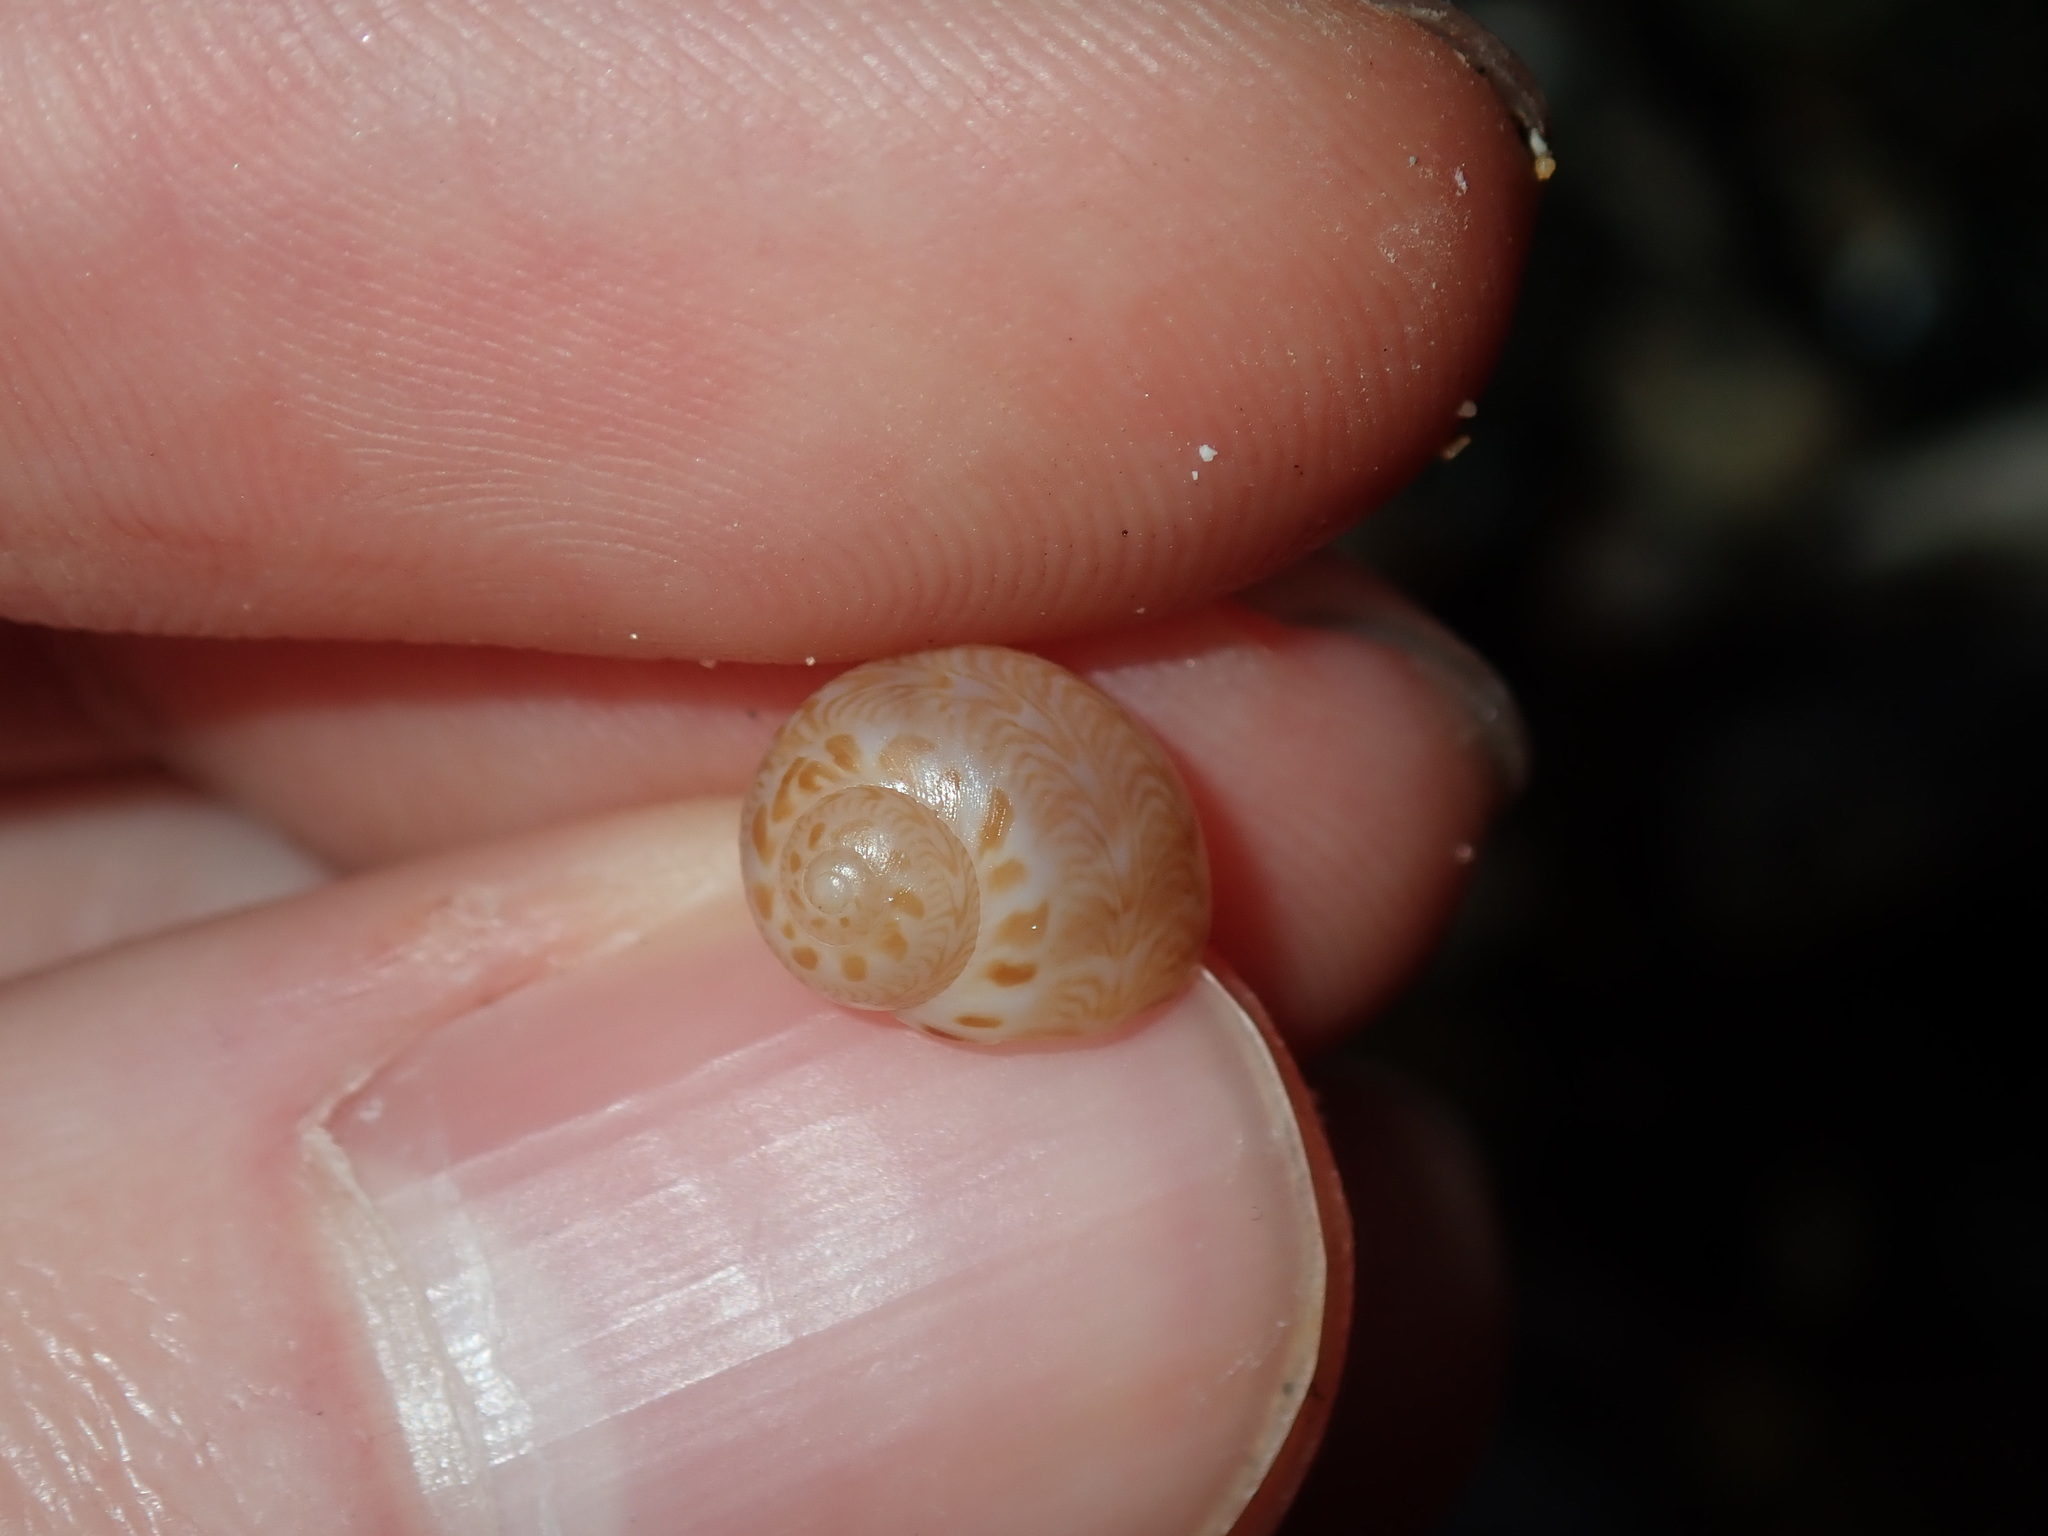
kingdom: Animalia
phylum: Mollusca
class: Gastropoda
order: Littorinimorpha
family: Naticidae
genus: Tanea
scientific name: Tanea sagittata
